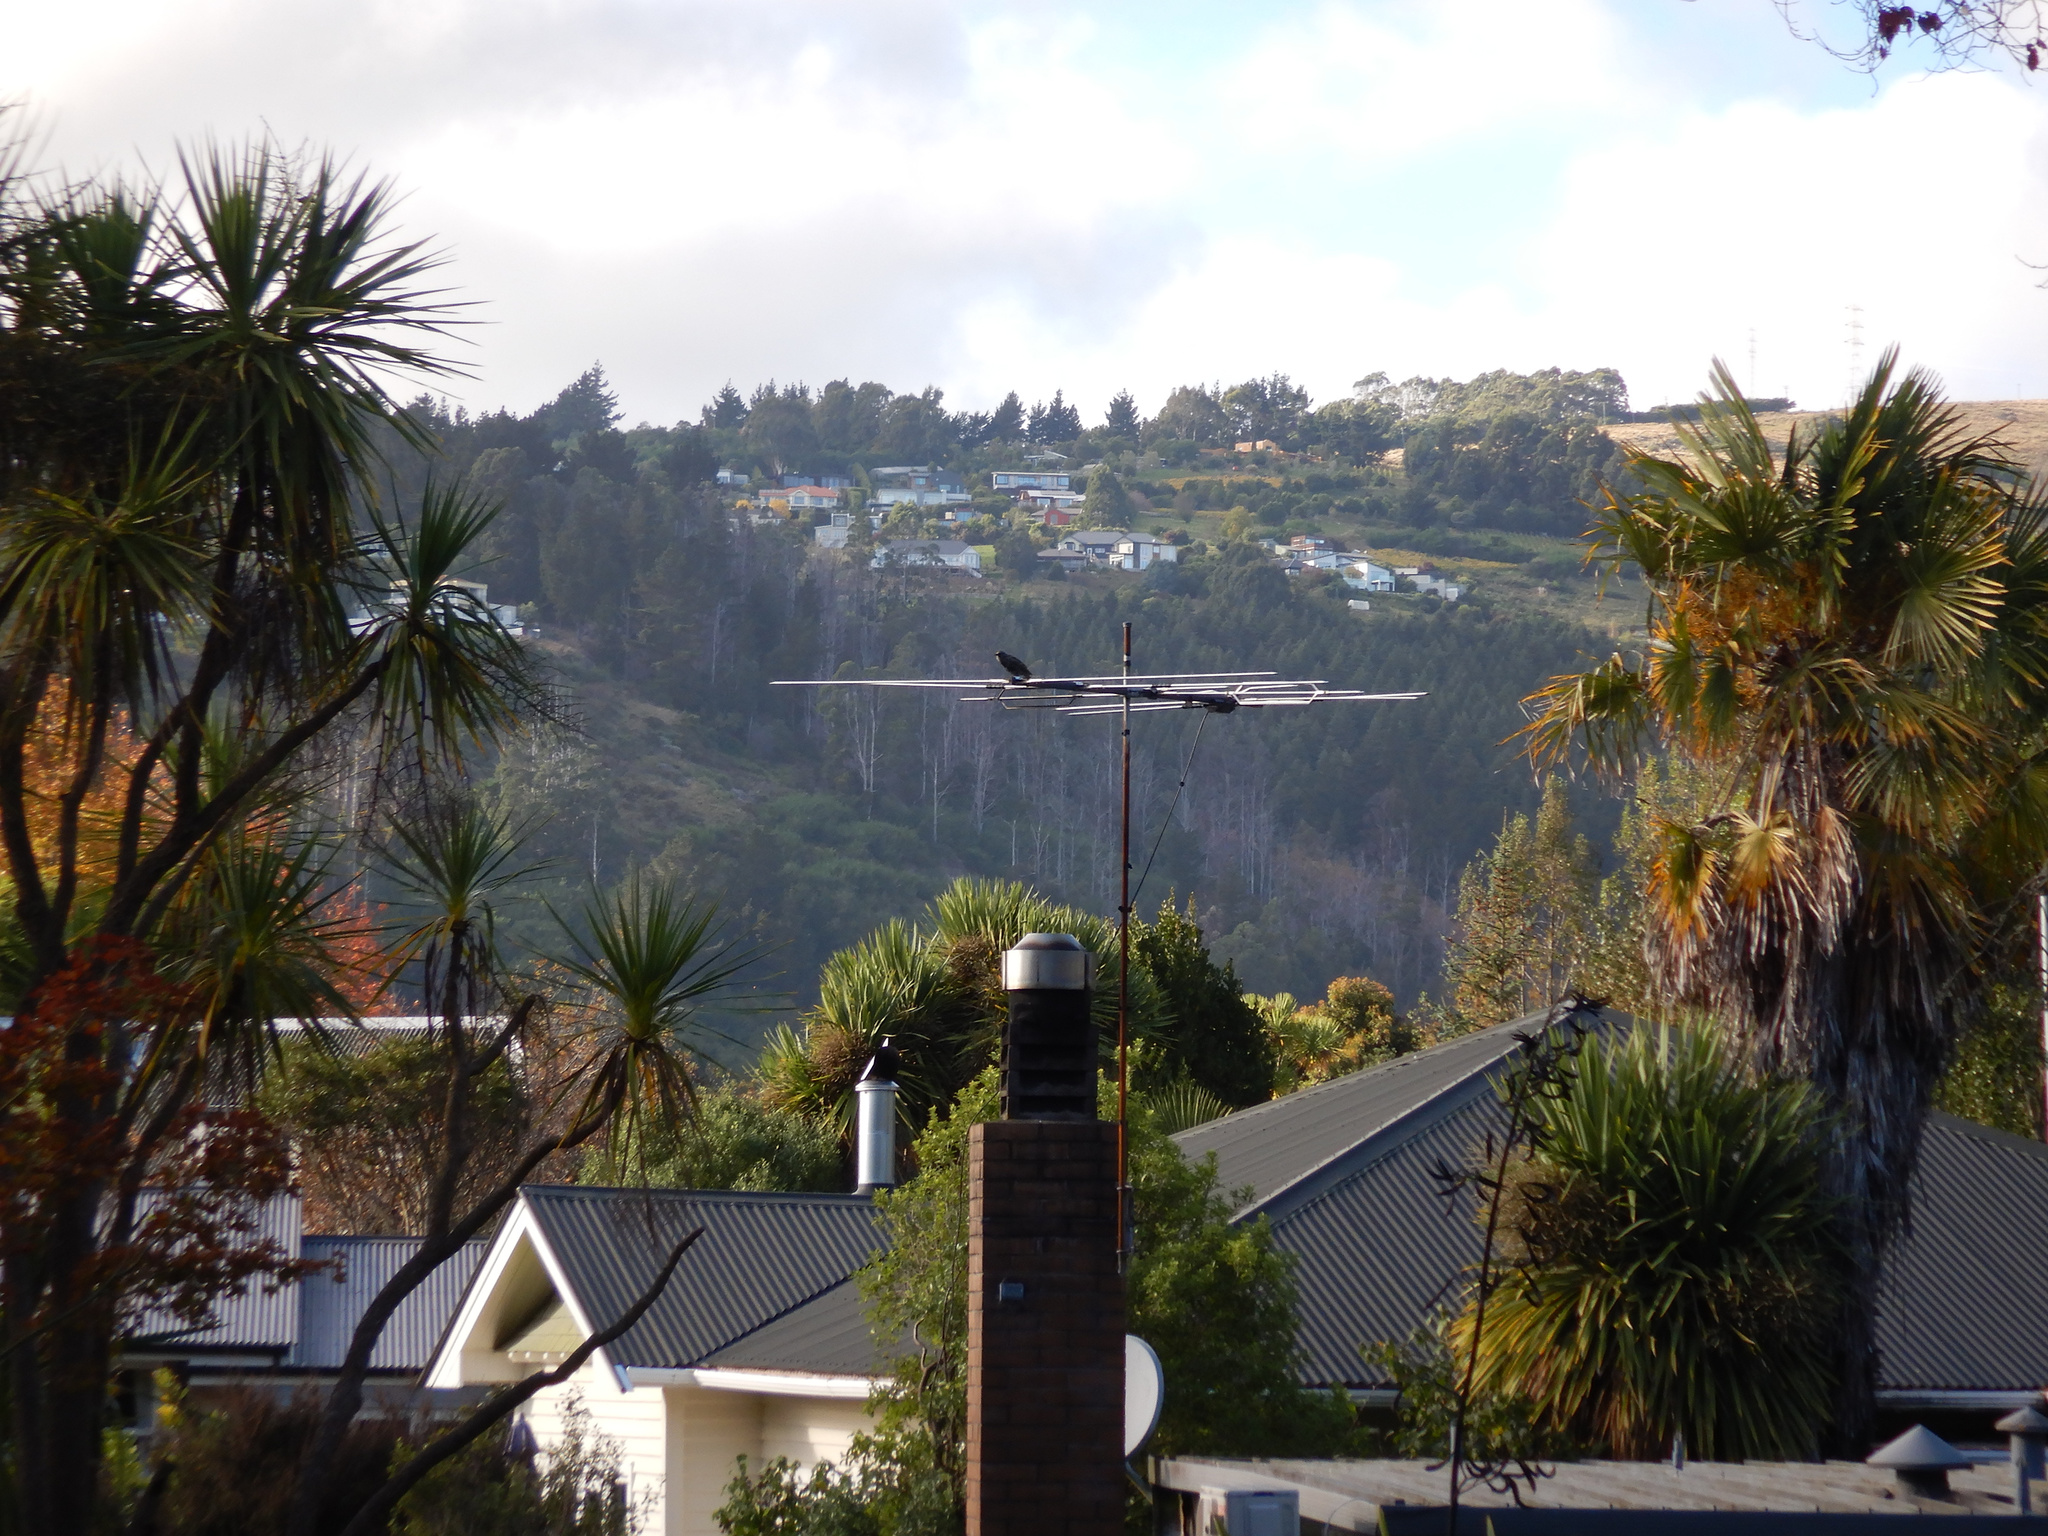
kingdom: Animalia
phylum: Chordata
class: Aves
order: Passeriformes
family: Sturnidae
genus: Sturnus
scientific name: Sturnus vulgaris
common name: Common starling
